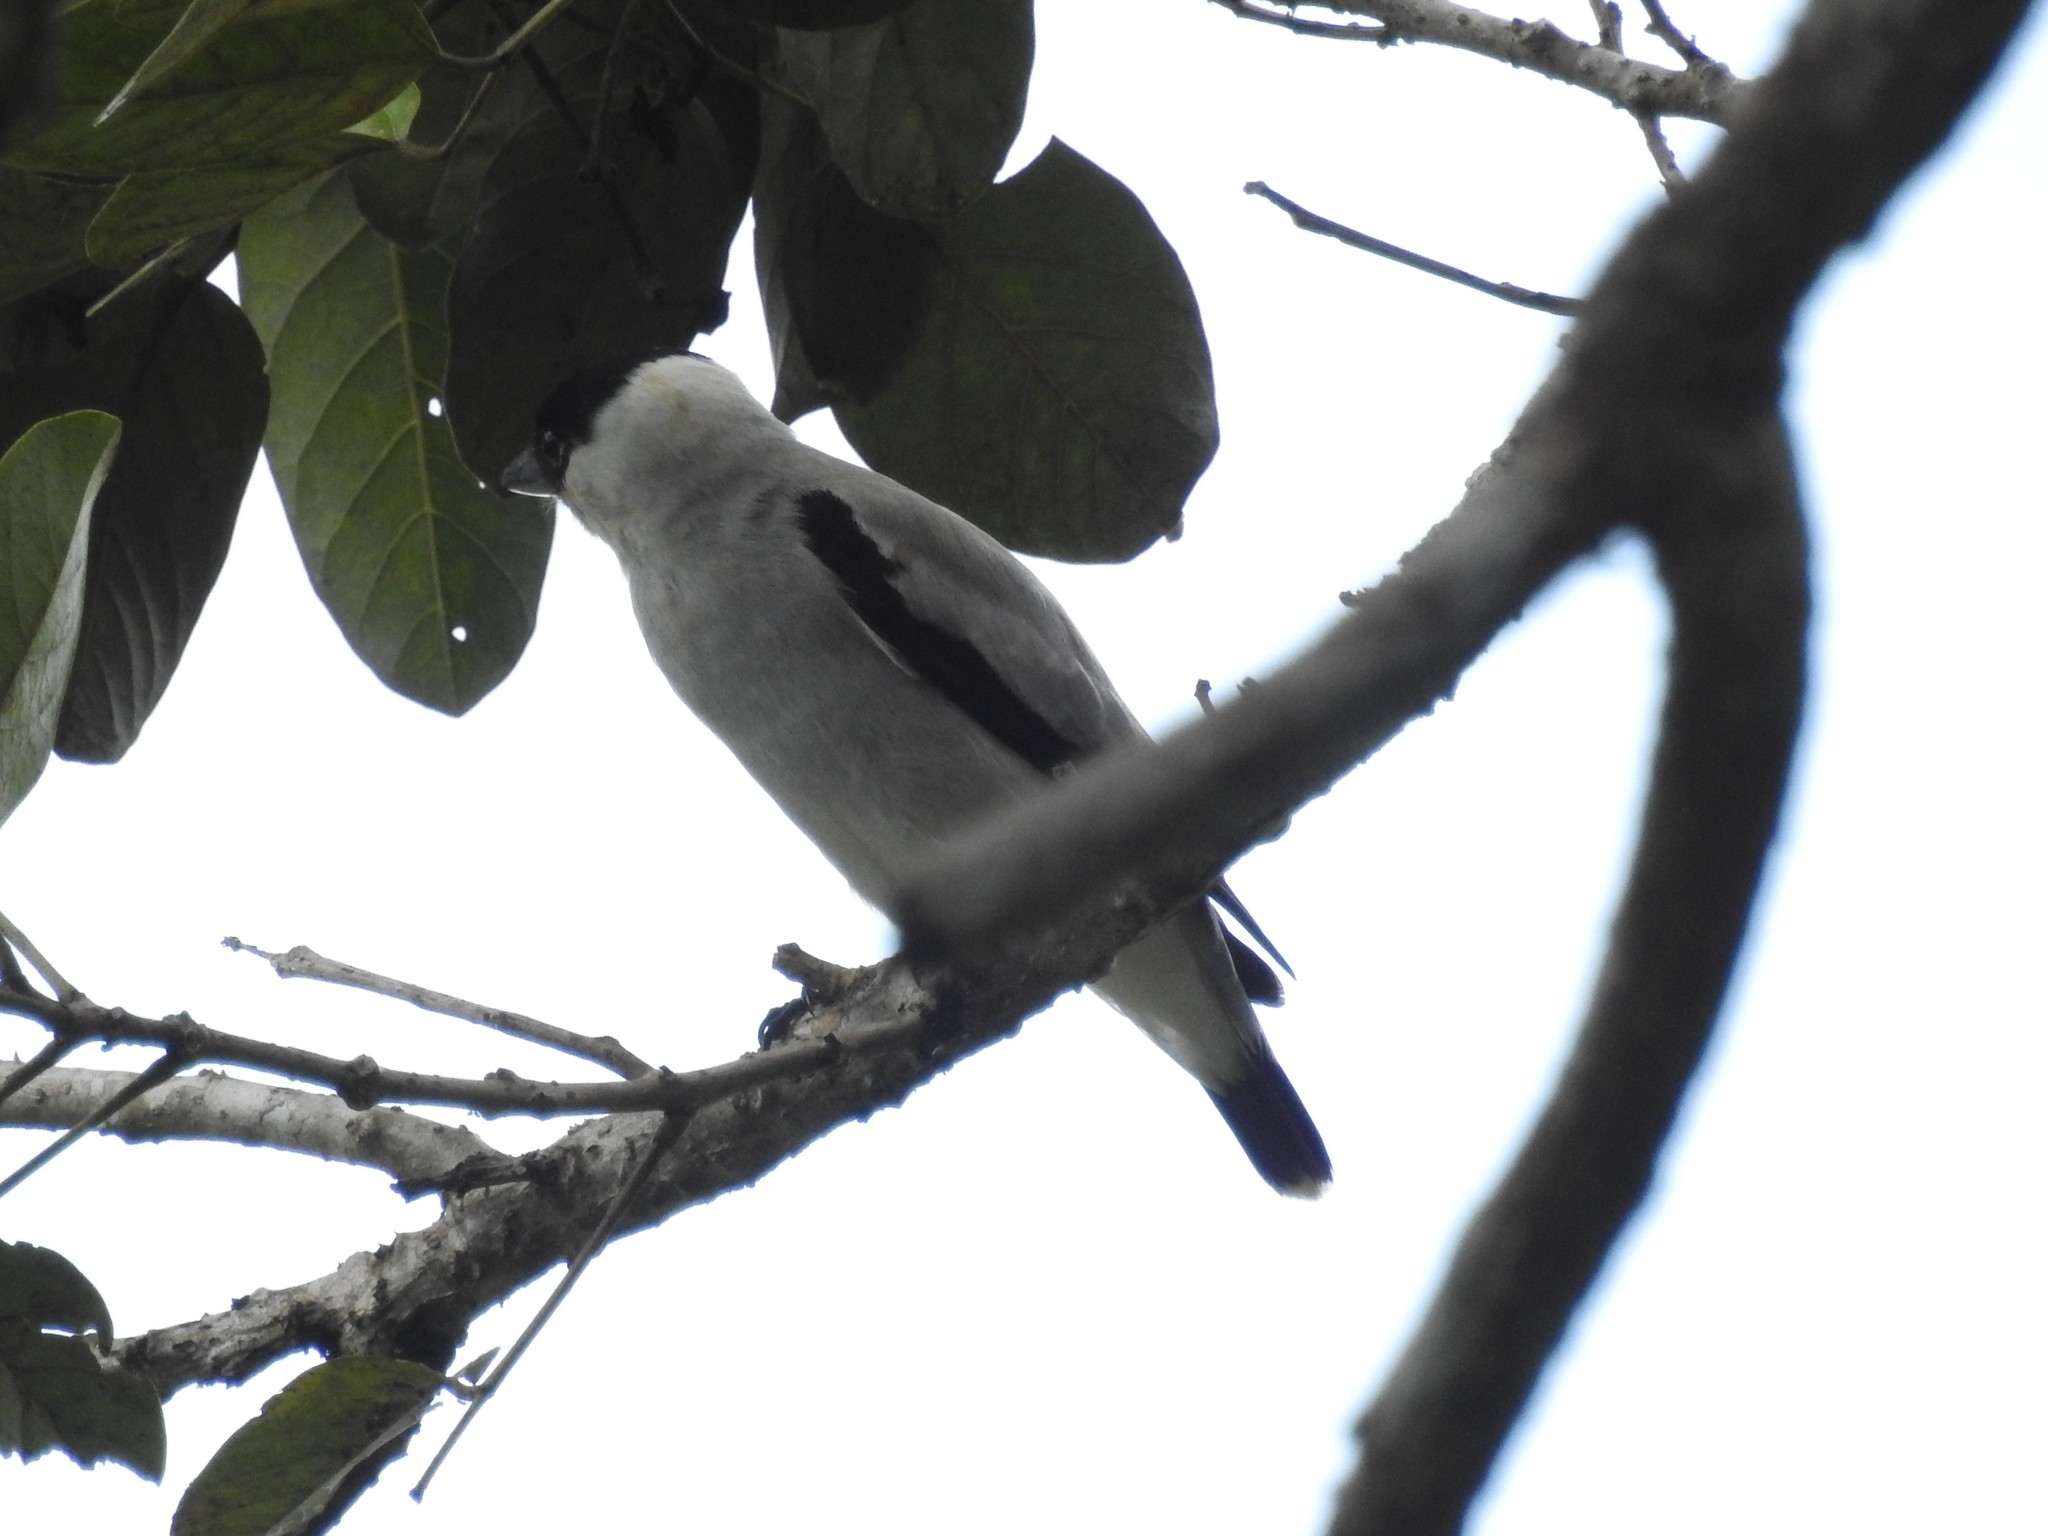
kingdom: Animalia
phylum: Chordata
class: Aves
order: Passeriformes
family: Cotingidae
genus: Tityra
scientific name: Tityra inquisitor
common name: Black-crowned tityra
